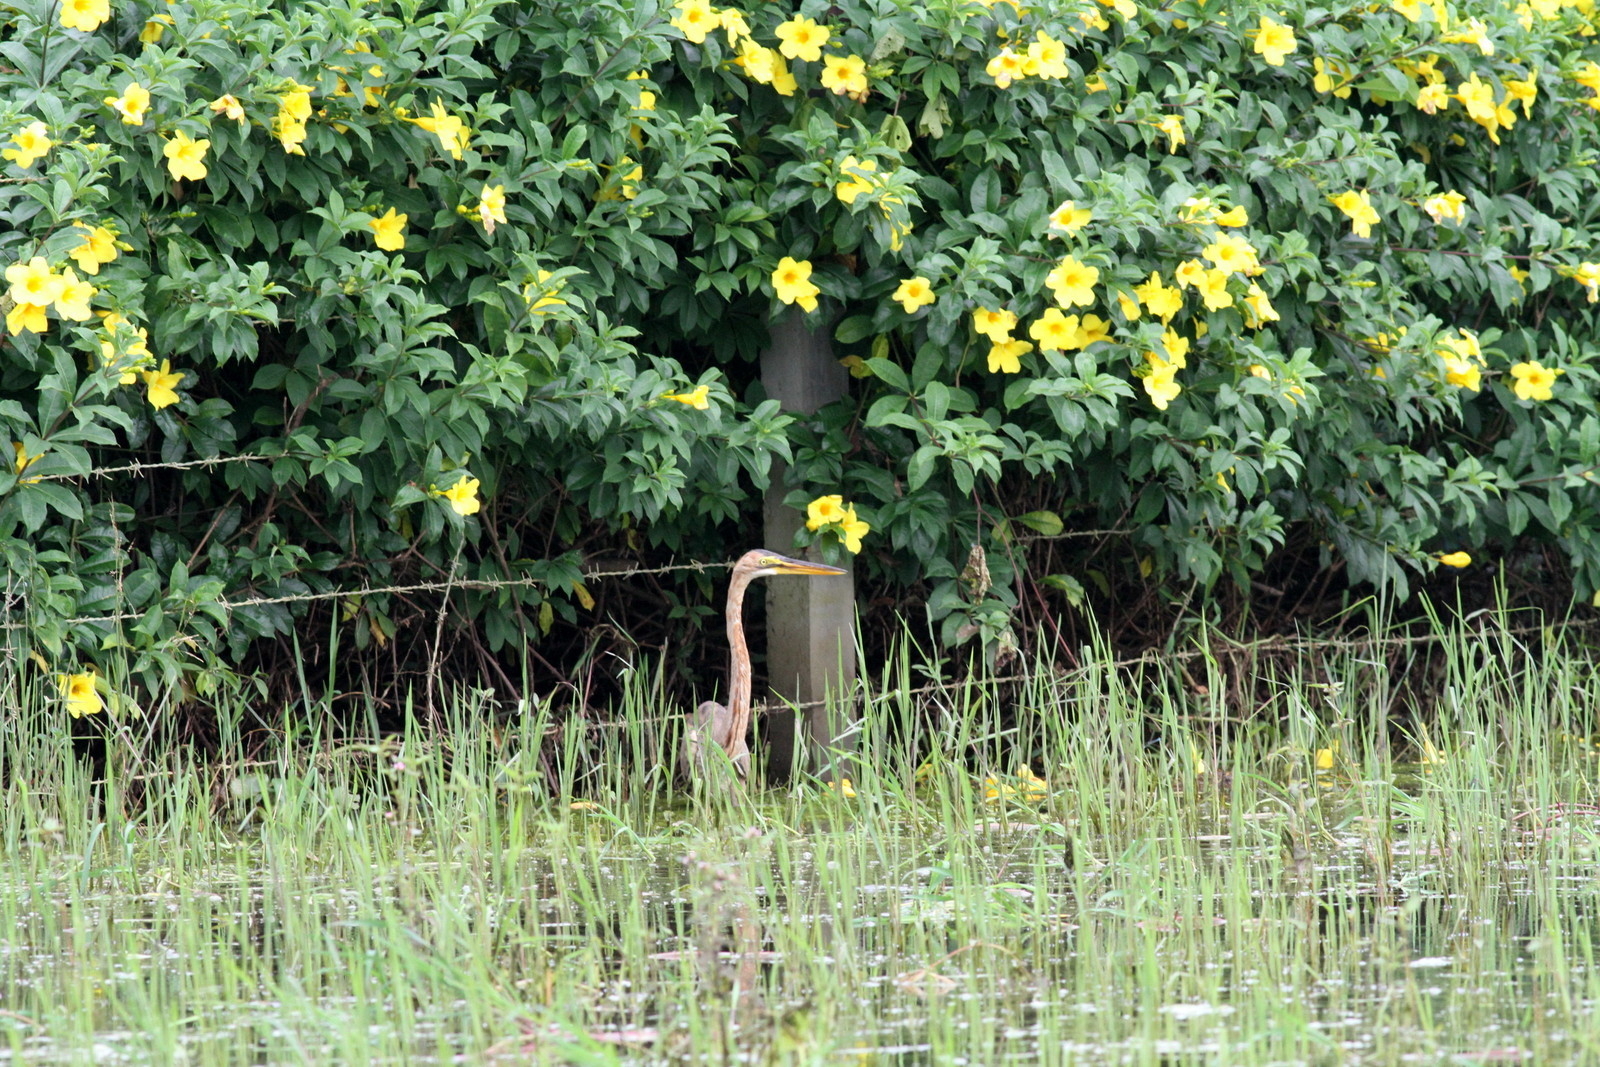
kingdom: Animalia
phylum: Chordata
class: Aves
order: Pelecaniformes
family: Ardeidae
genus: Ardea
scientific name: Ardea purpurea
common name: Purple heron
